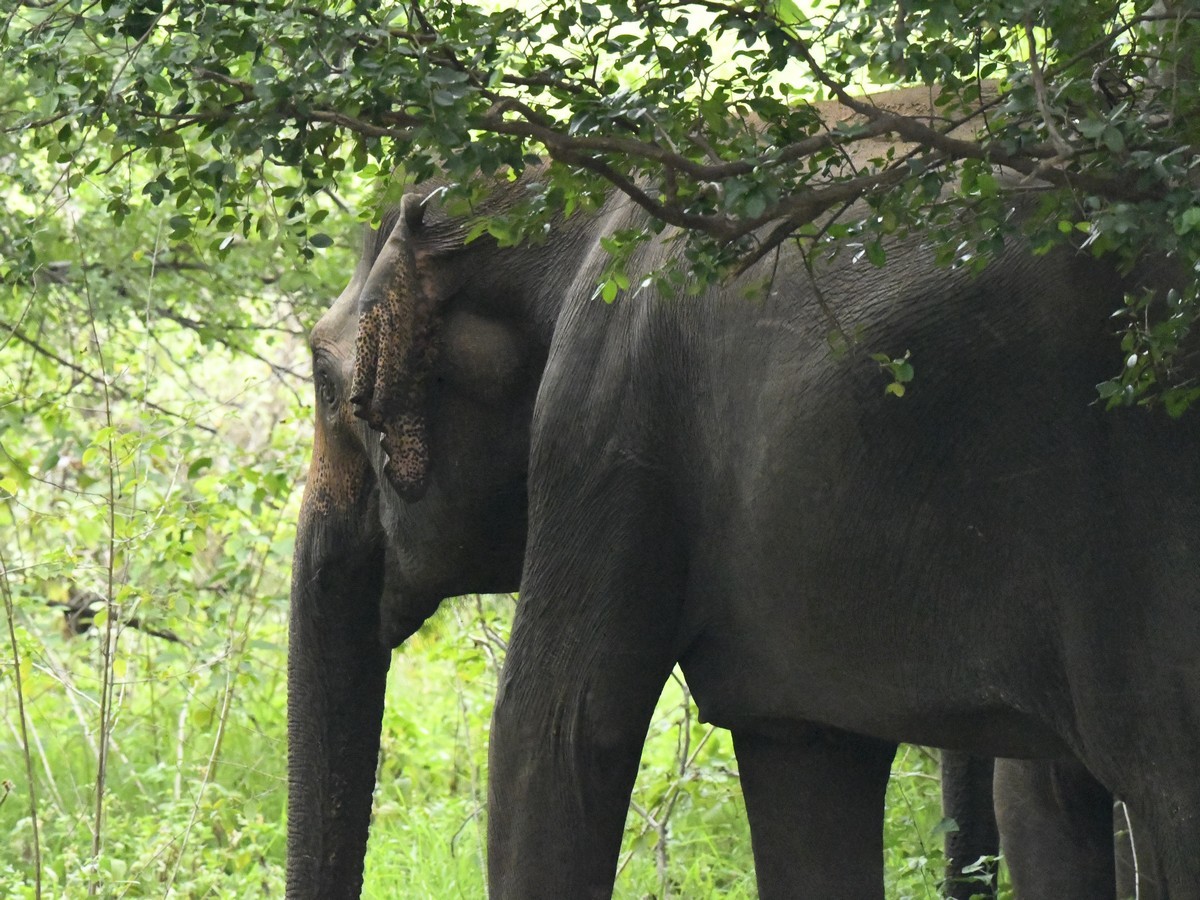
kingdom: Animalia
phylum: Chordata
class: Mammalia
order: Proboscidea
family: Elephantidae
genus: Elephas
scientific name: Elephas maximus
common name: Asian elephant
